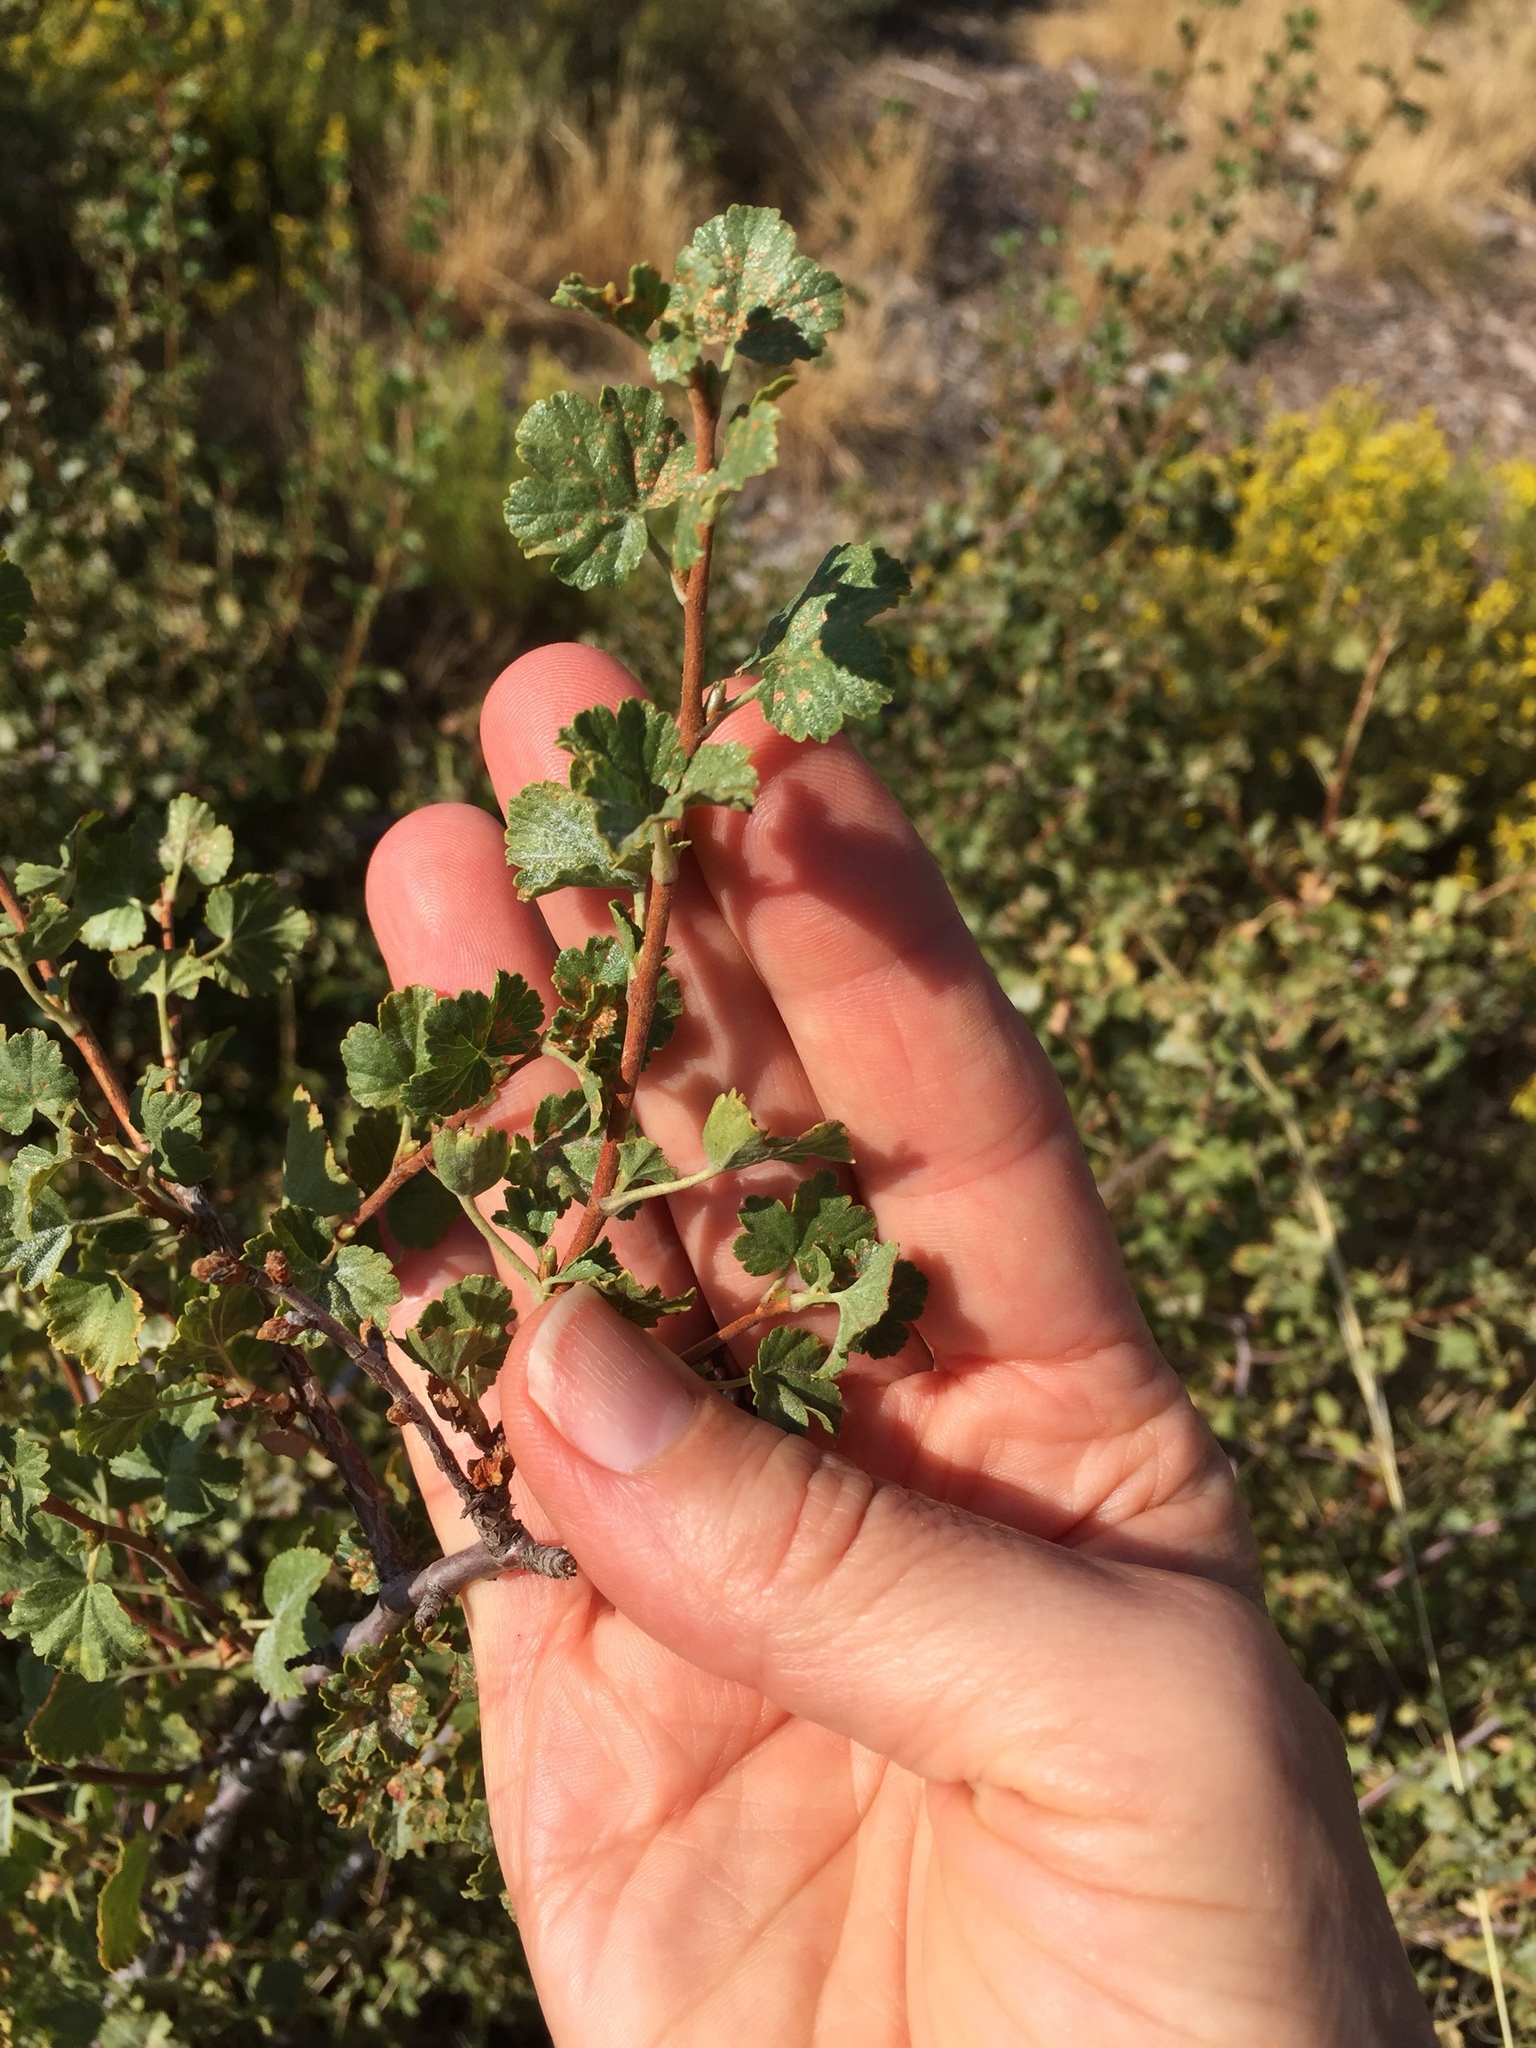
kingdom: Plantae
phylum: Tracheophyta
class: Magnoliopsida
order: Saxifragales
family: Grossulariaceae
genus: Ribes
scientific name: Ribes cereum
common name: Wax currant
